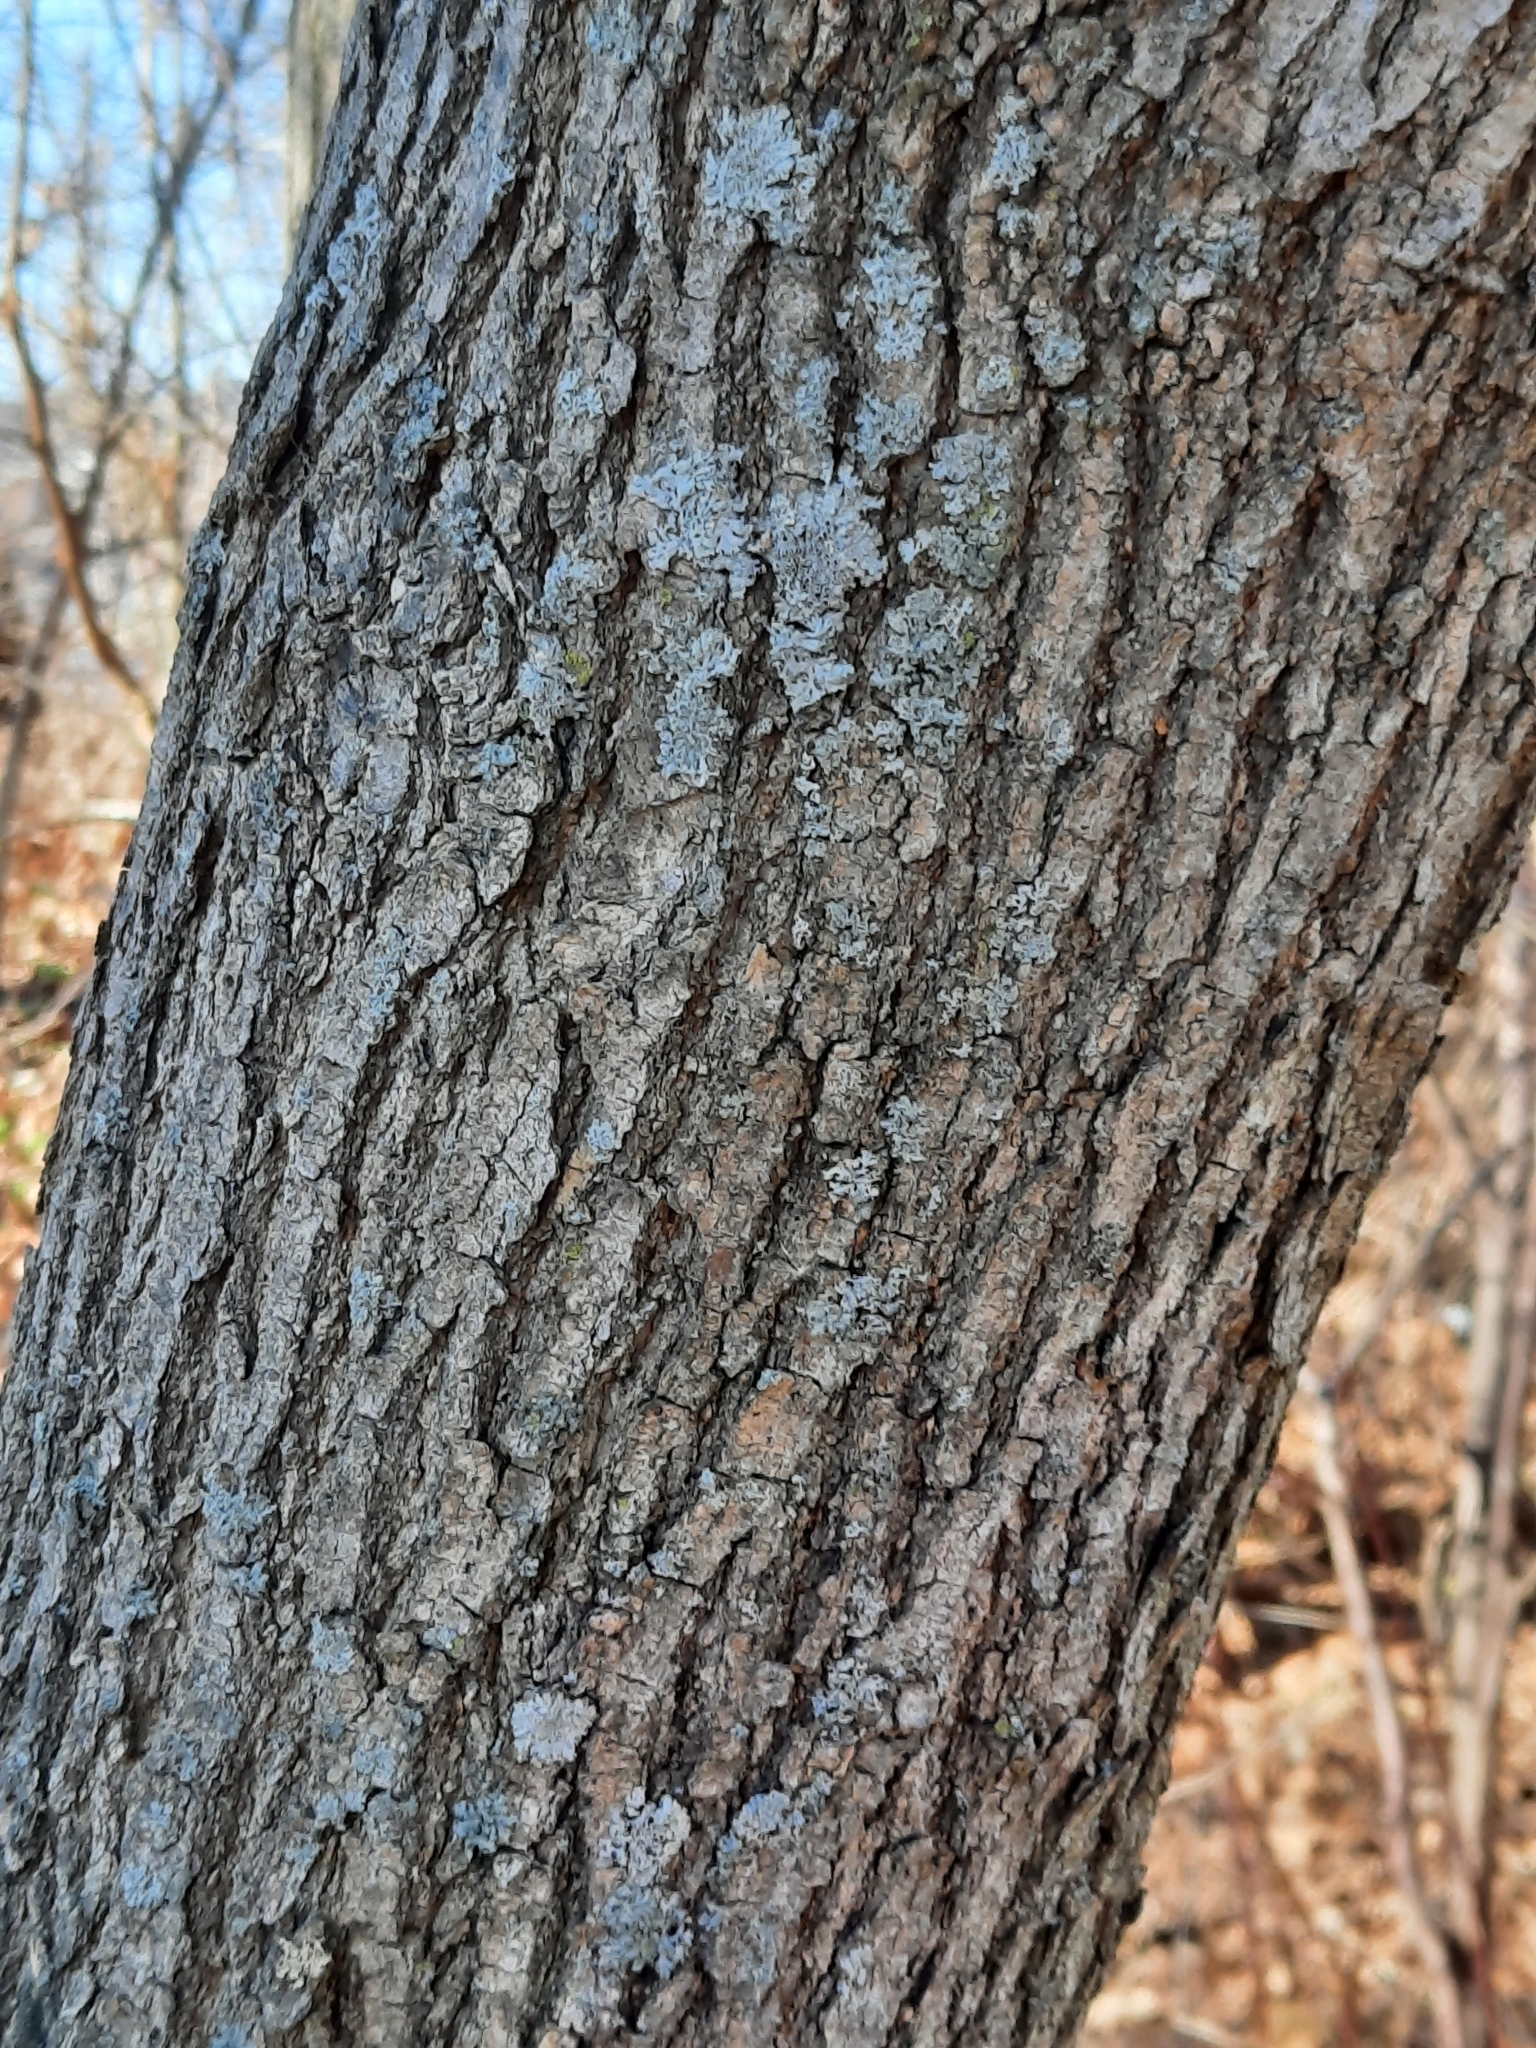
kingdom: Plantae
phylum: Tracheophyta
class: Magnoliopsida
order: Sapindales
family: Sapindaceae
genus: Acer
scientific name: Acer negundo
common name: Ashleaf maple
